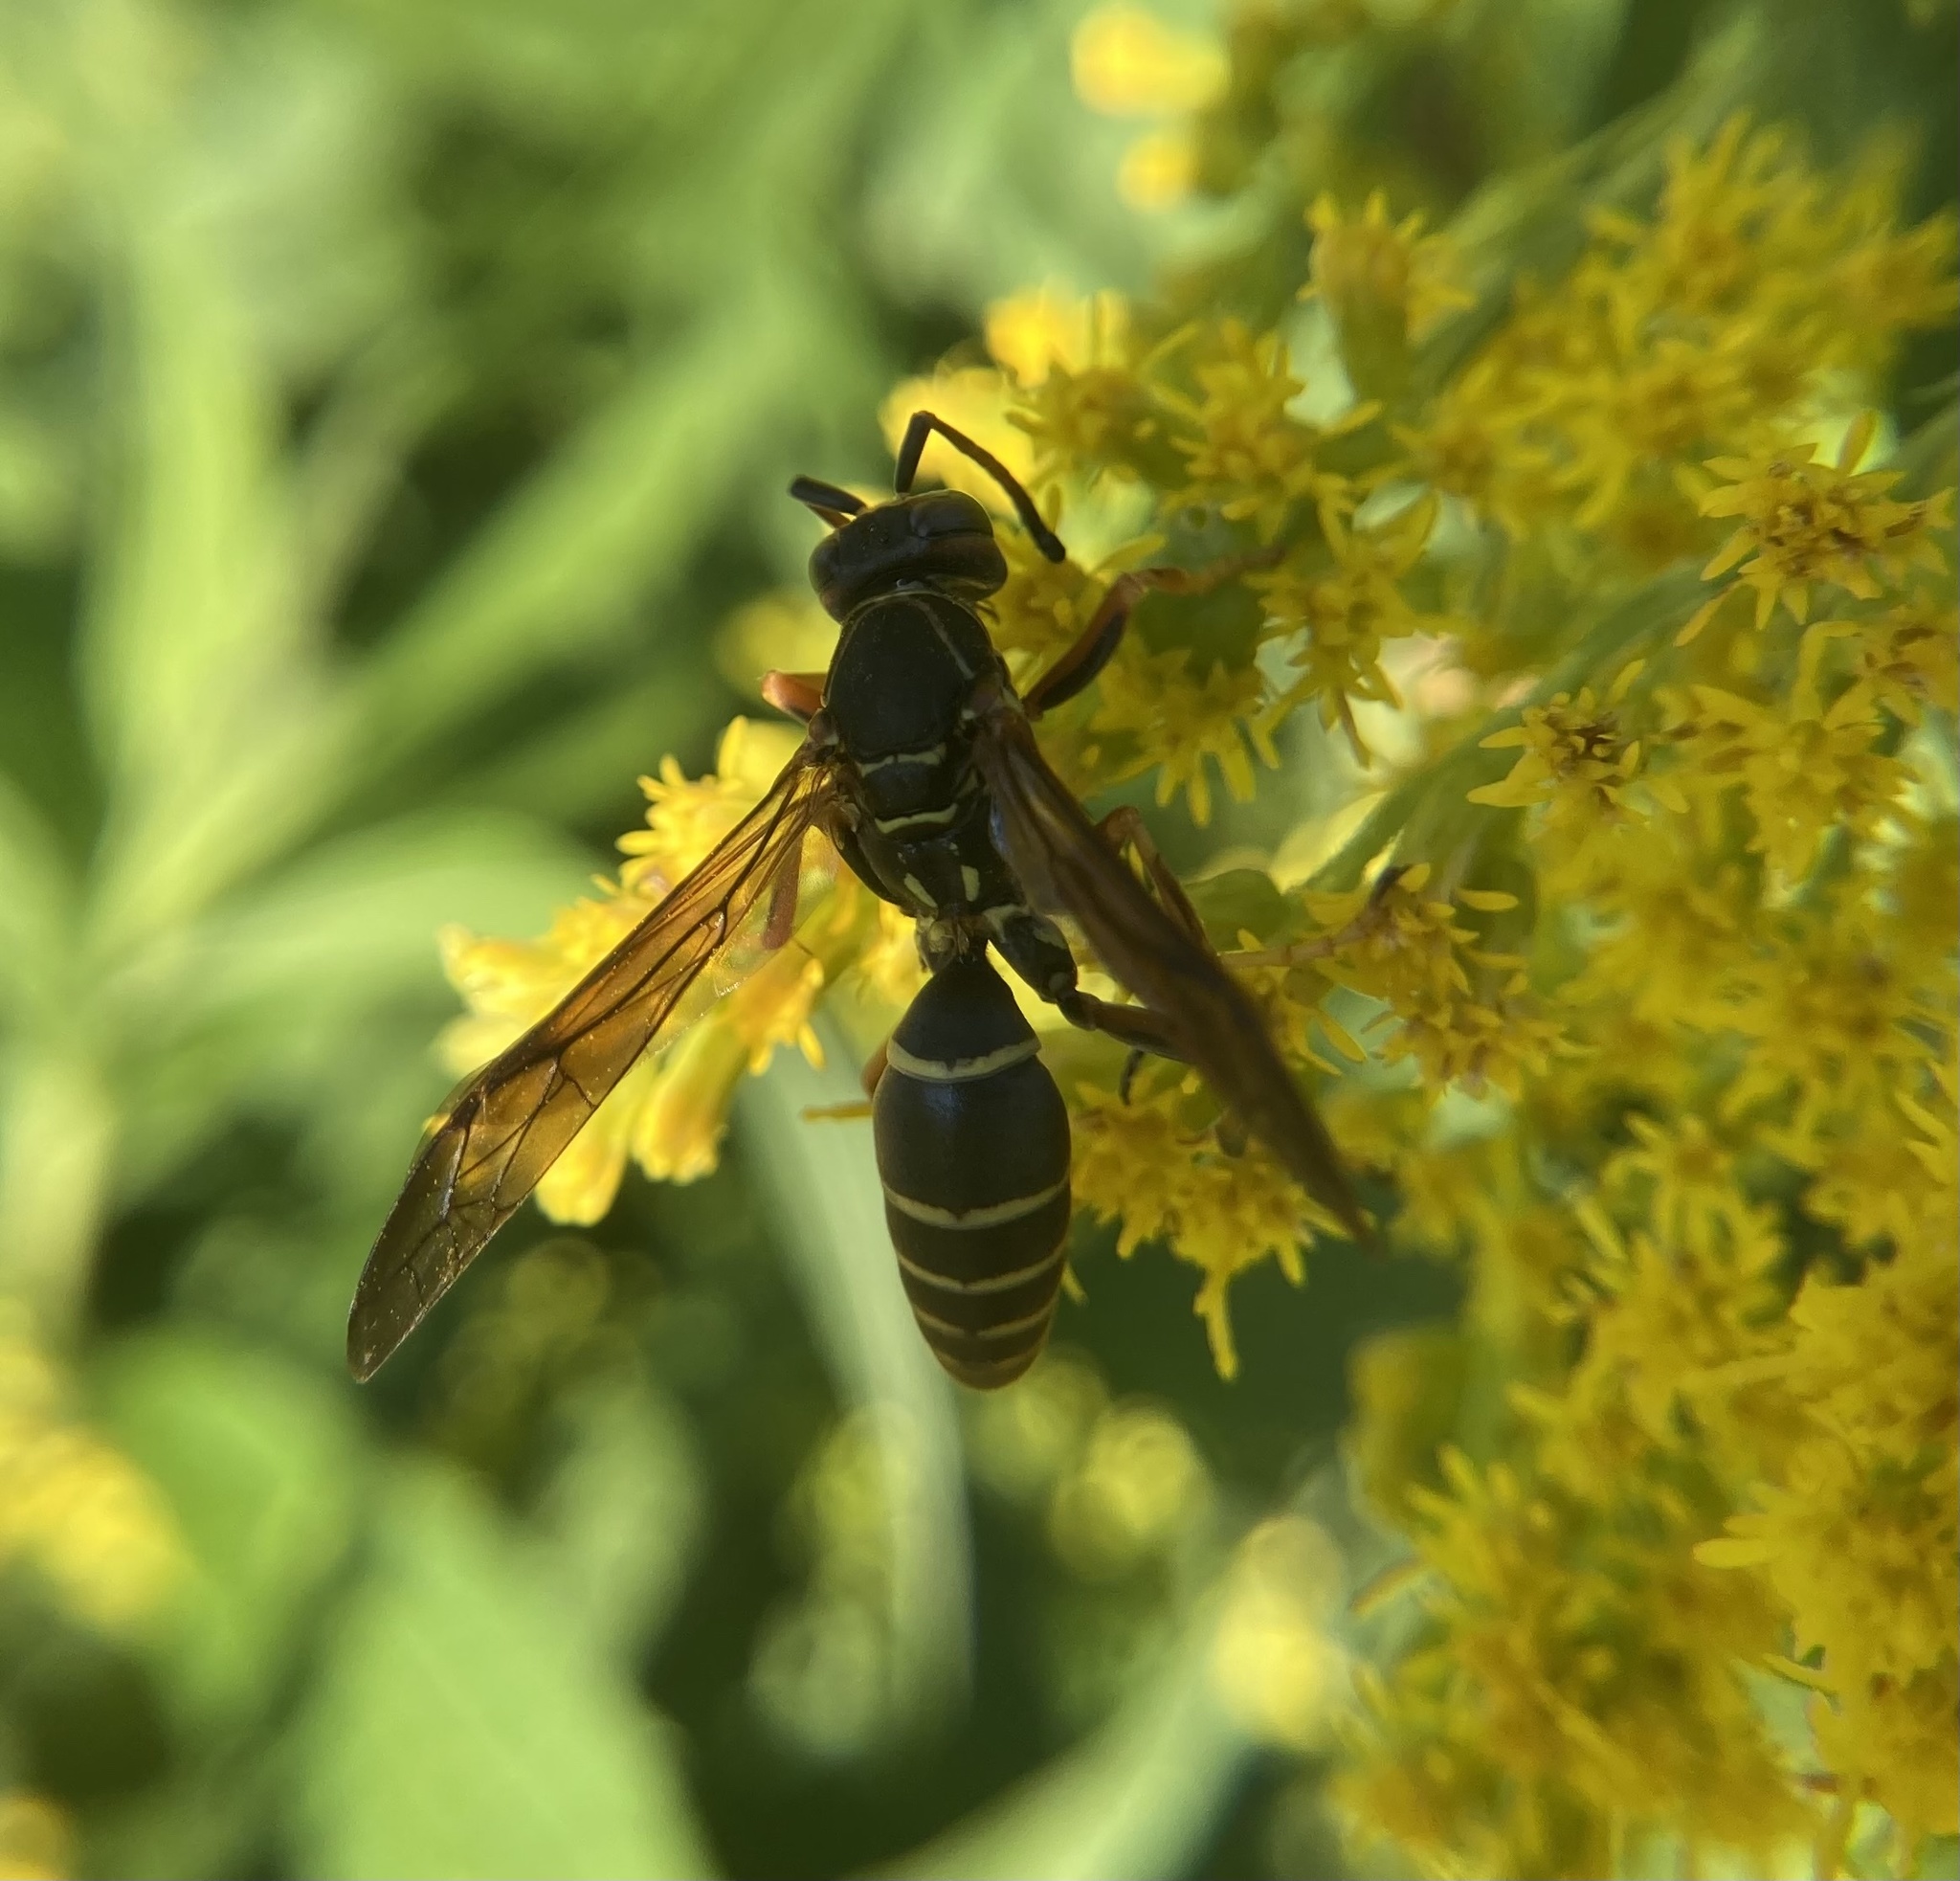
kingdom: Animalia
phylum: Arthropoda
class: Insecta
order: Hymenoptera
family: Eumenidae
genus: Polistes
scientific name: Polistes fuscatus
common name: Dark paper wasp
